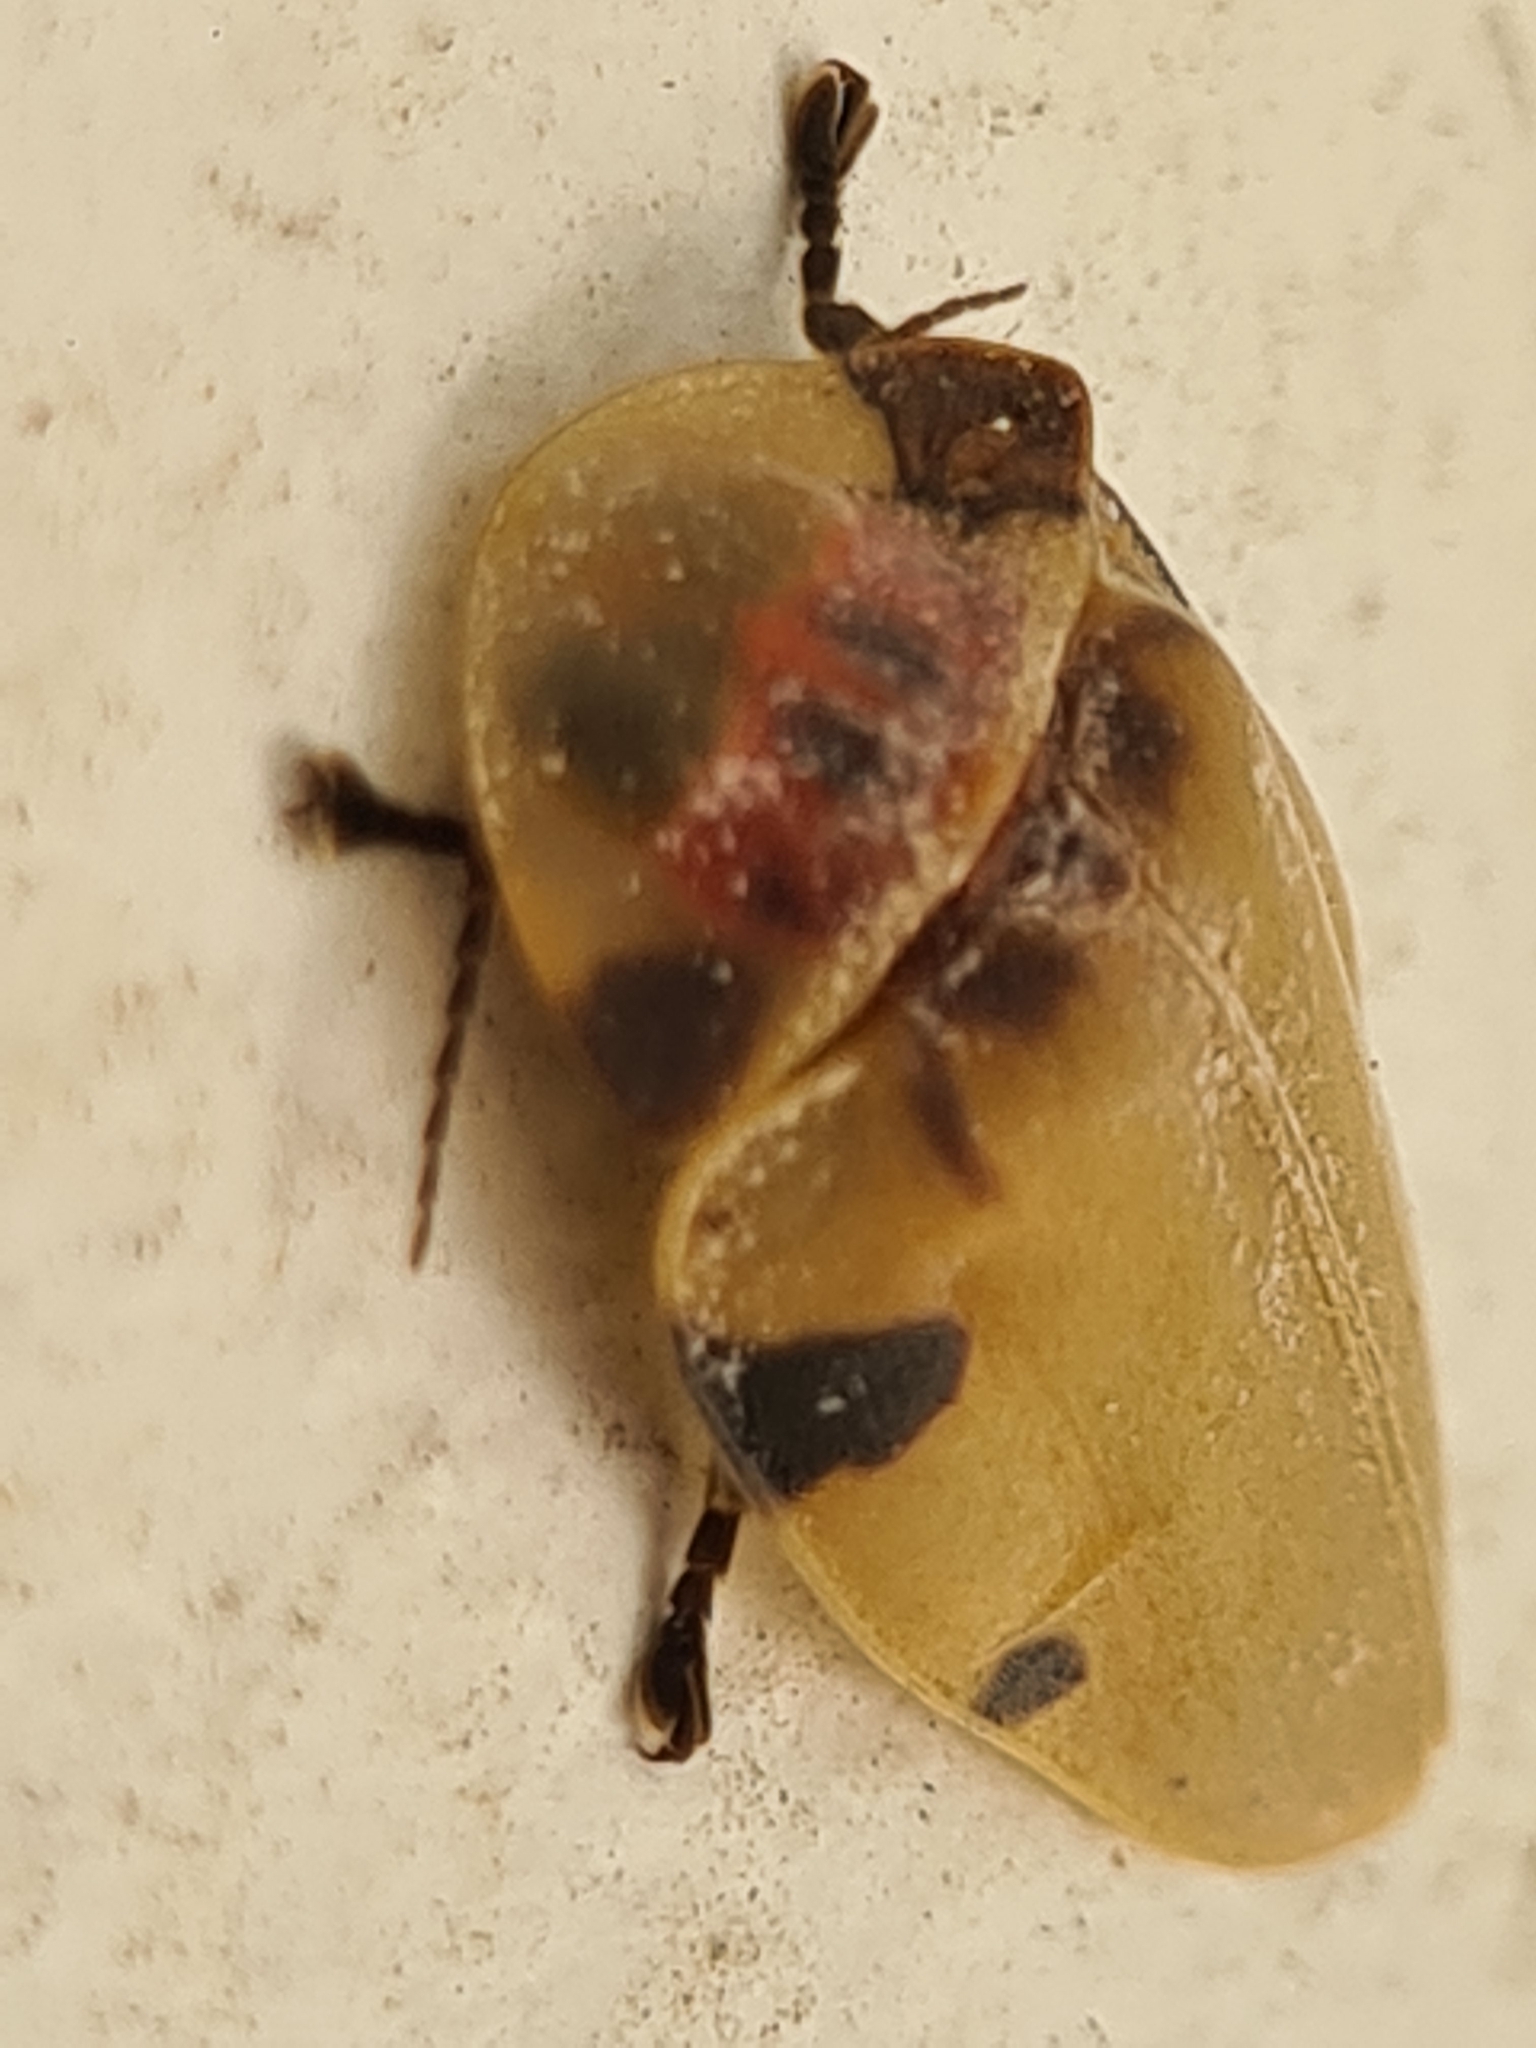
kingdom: Animalia
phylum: Arthropoda
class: Insecta
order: Coleoptera
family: Lampyridae
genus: Aspisoma
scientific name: Aspisoma sticticum
